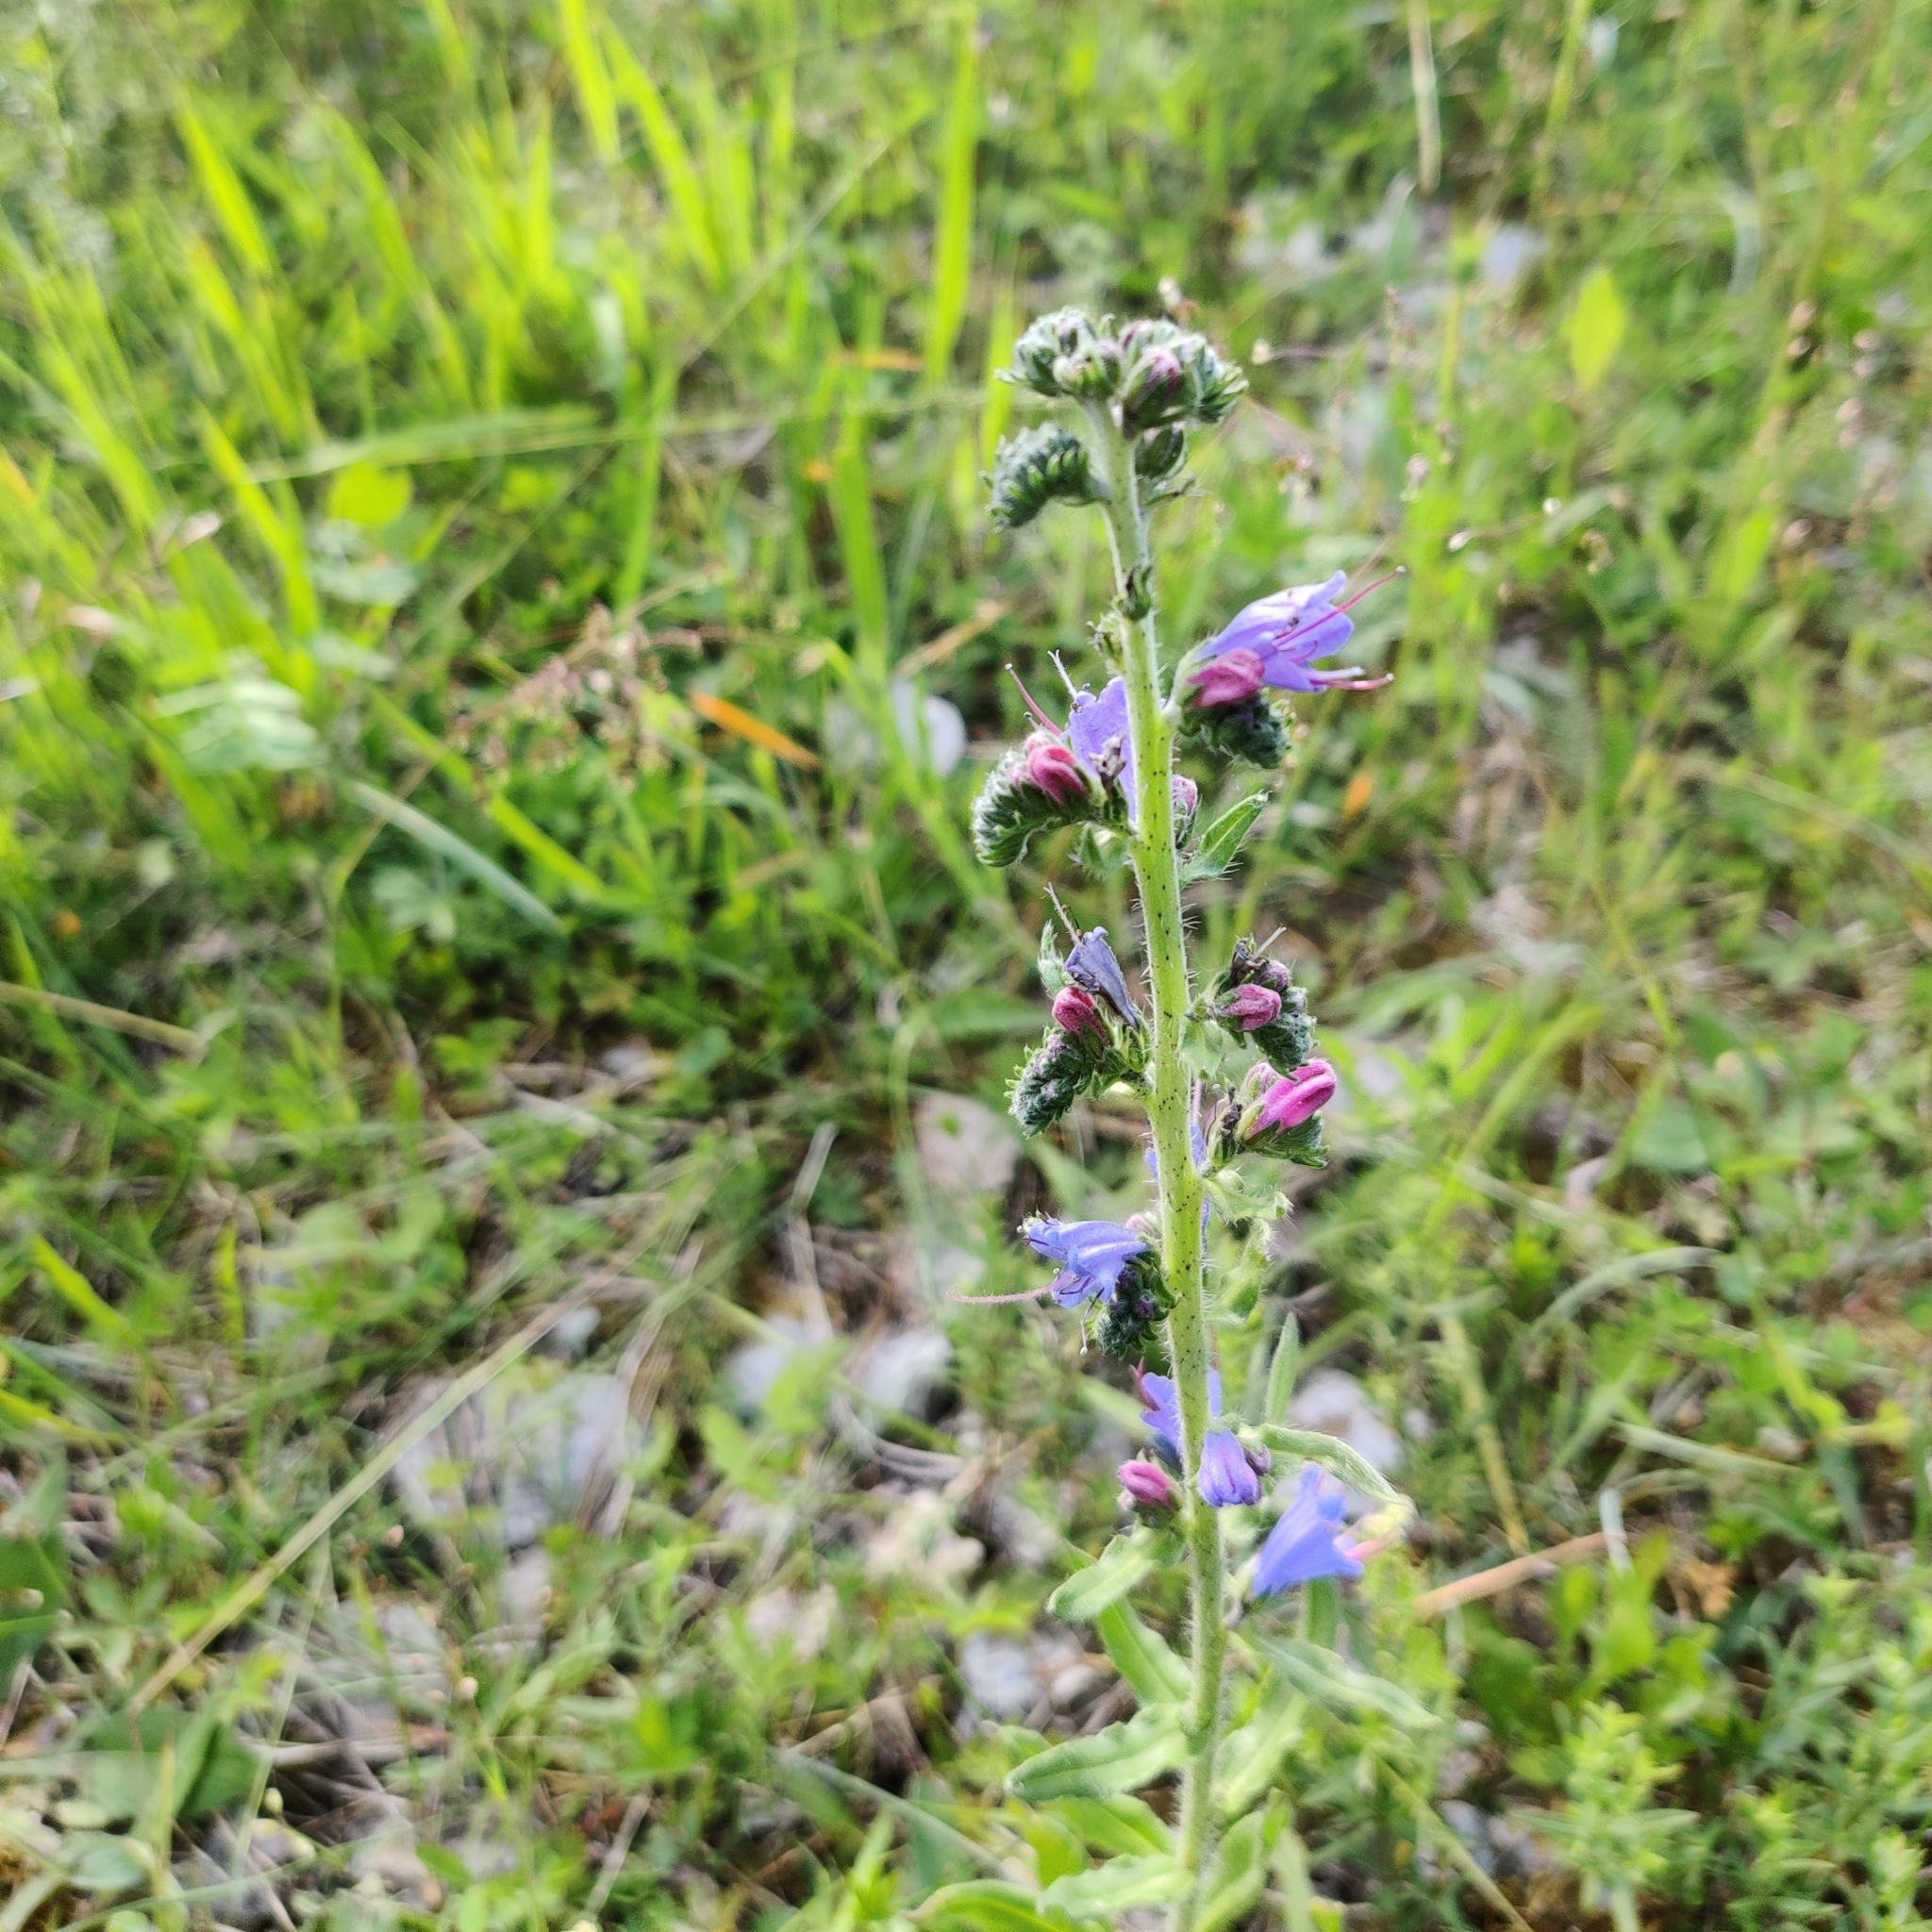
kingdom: Plantae
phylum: Tracheophyta
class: Magnoliopsida
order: Boraginales
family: Boraginaceae
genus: Echium
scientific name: Echium vulgare
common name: Common viper's bugloss
